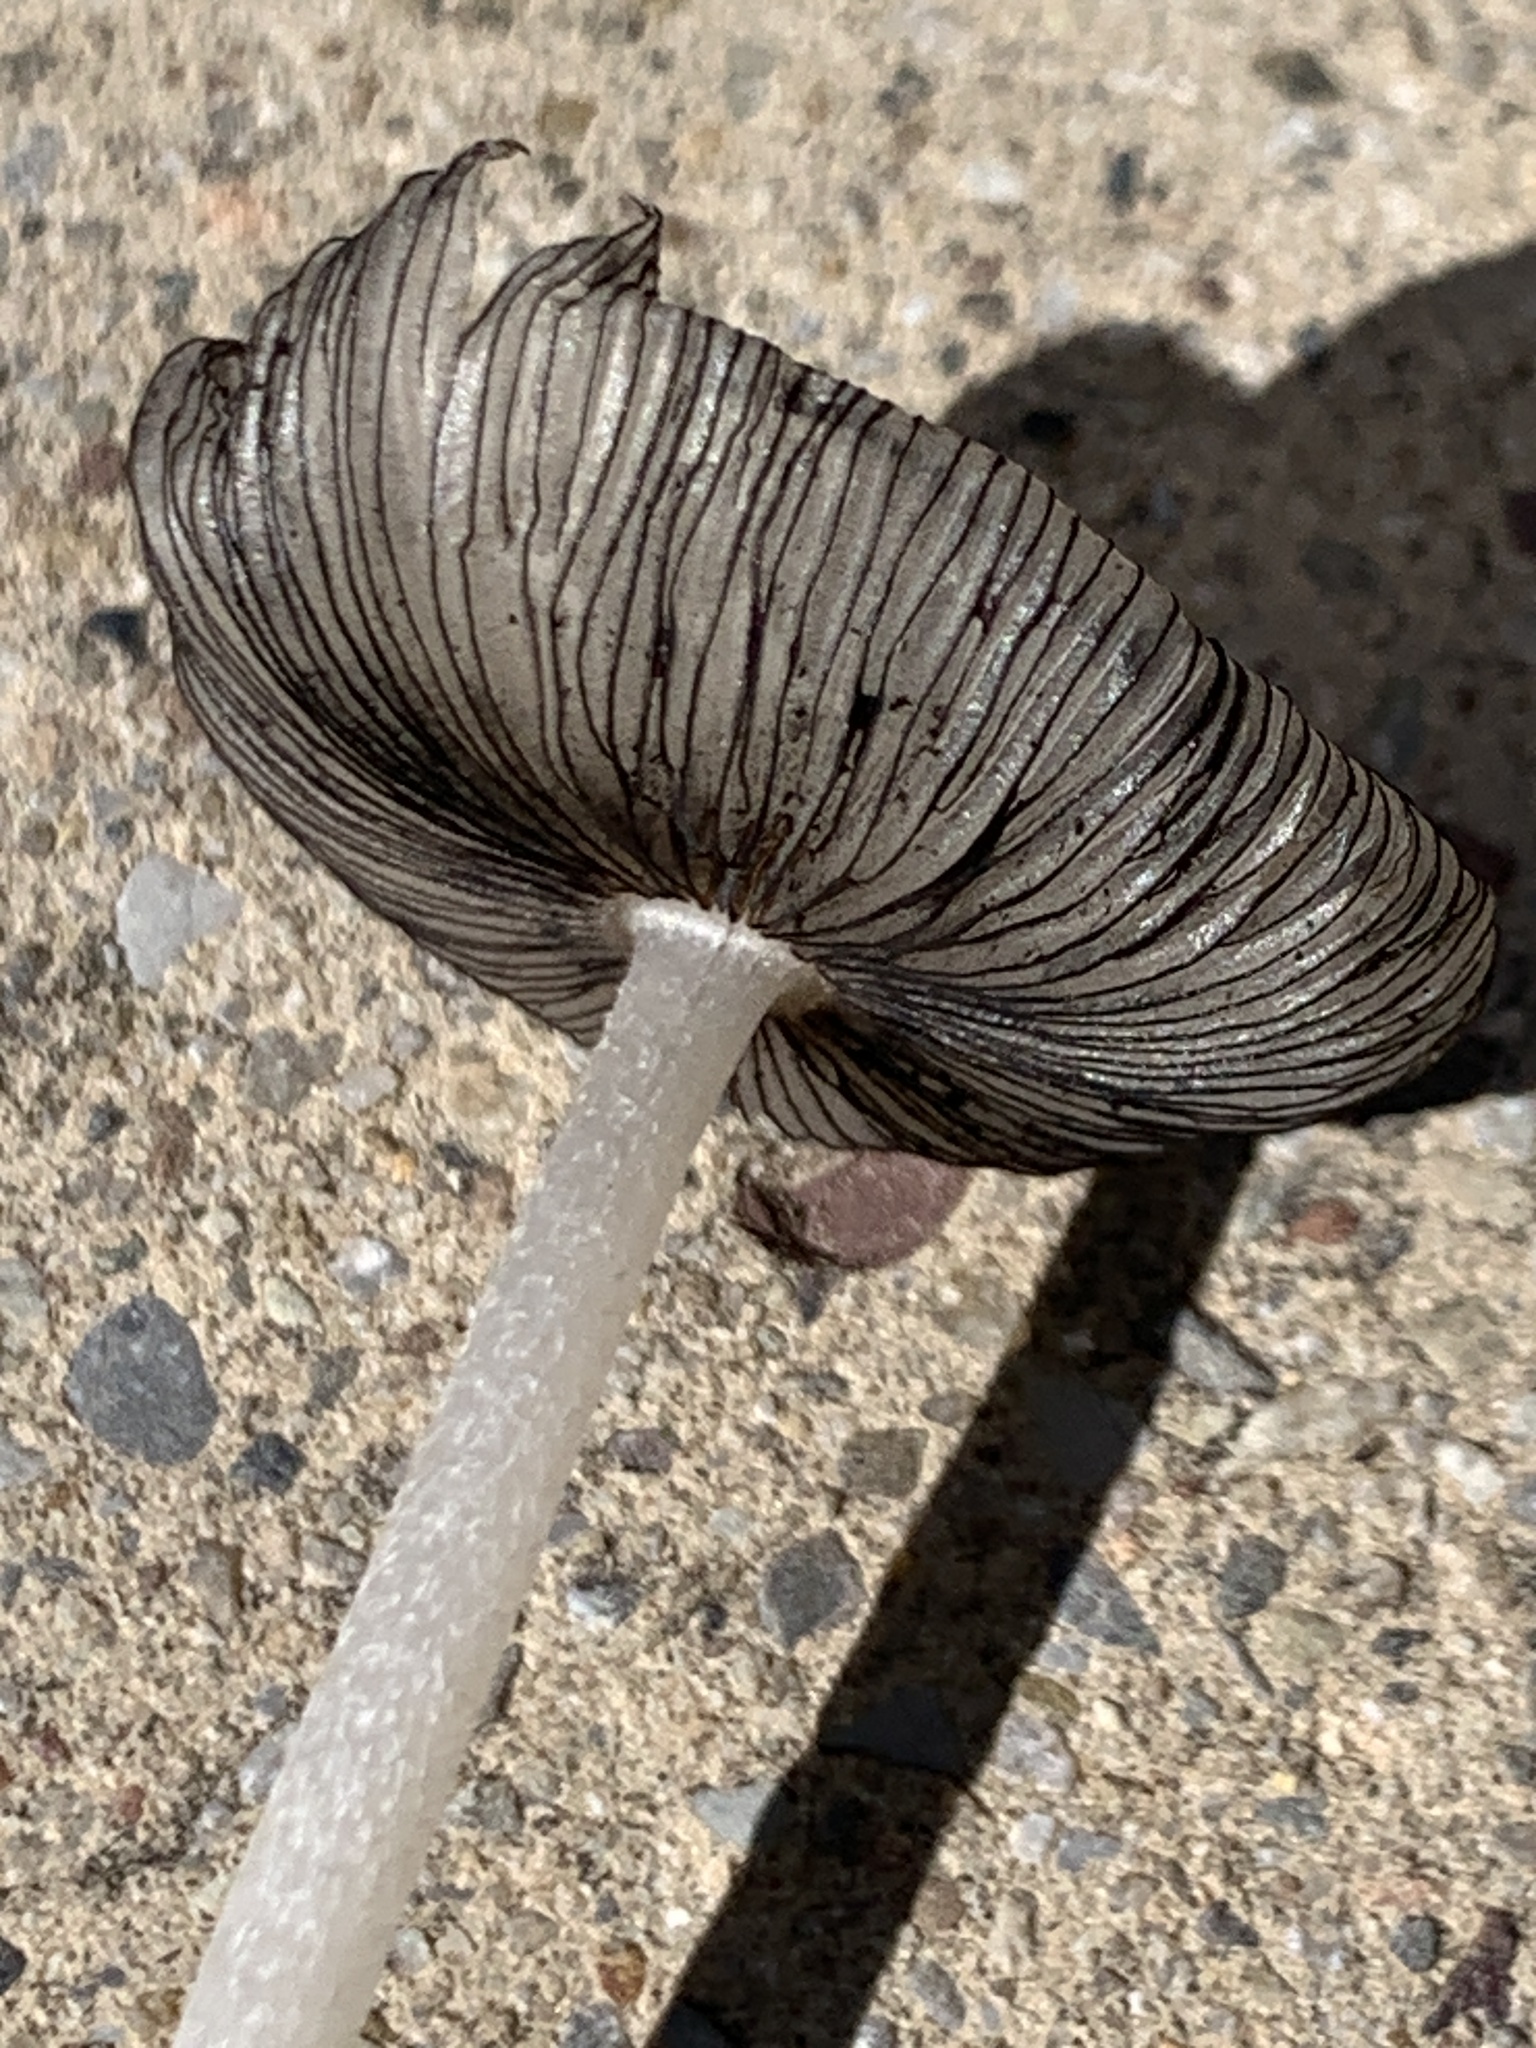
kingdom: Fungi
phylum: Basidiomycota
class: Agaricomycetes
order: Agaricales
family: Psathyrellaceae
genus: Coprinopsis
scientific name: Coprinopsis lagopus
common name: Hare'sfoot inkcap
